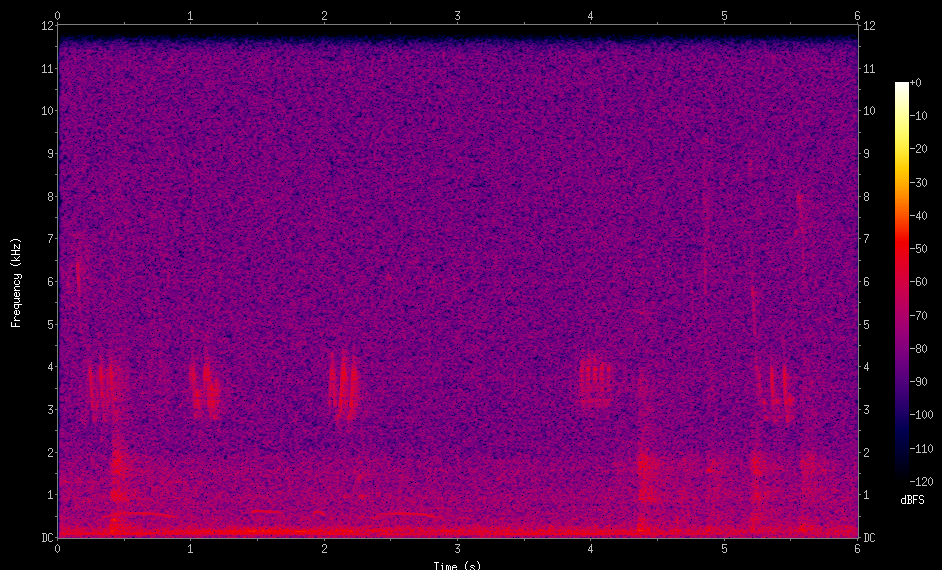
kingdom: Animalia
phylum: Chordata
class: Aves
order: Passeriformes
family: Vireonidae
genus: Vireo
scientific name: Vireo olivaceus
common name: Red-eyed vireo
